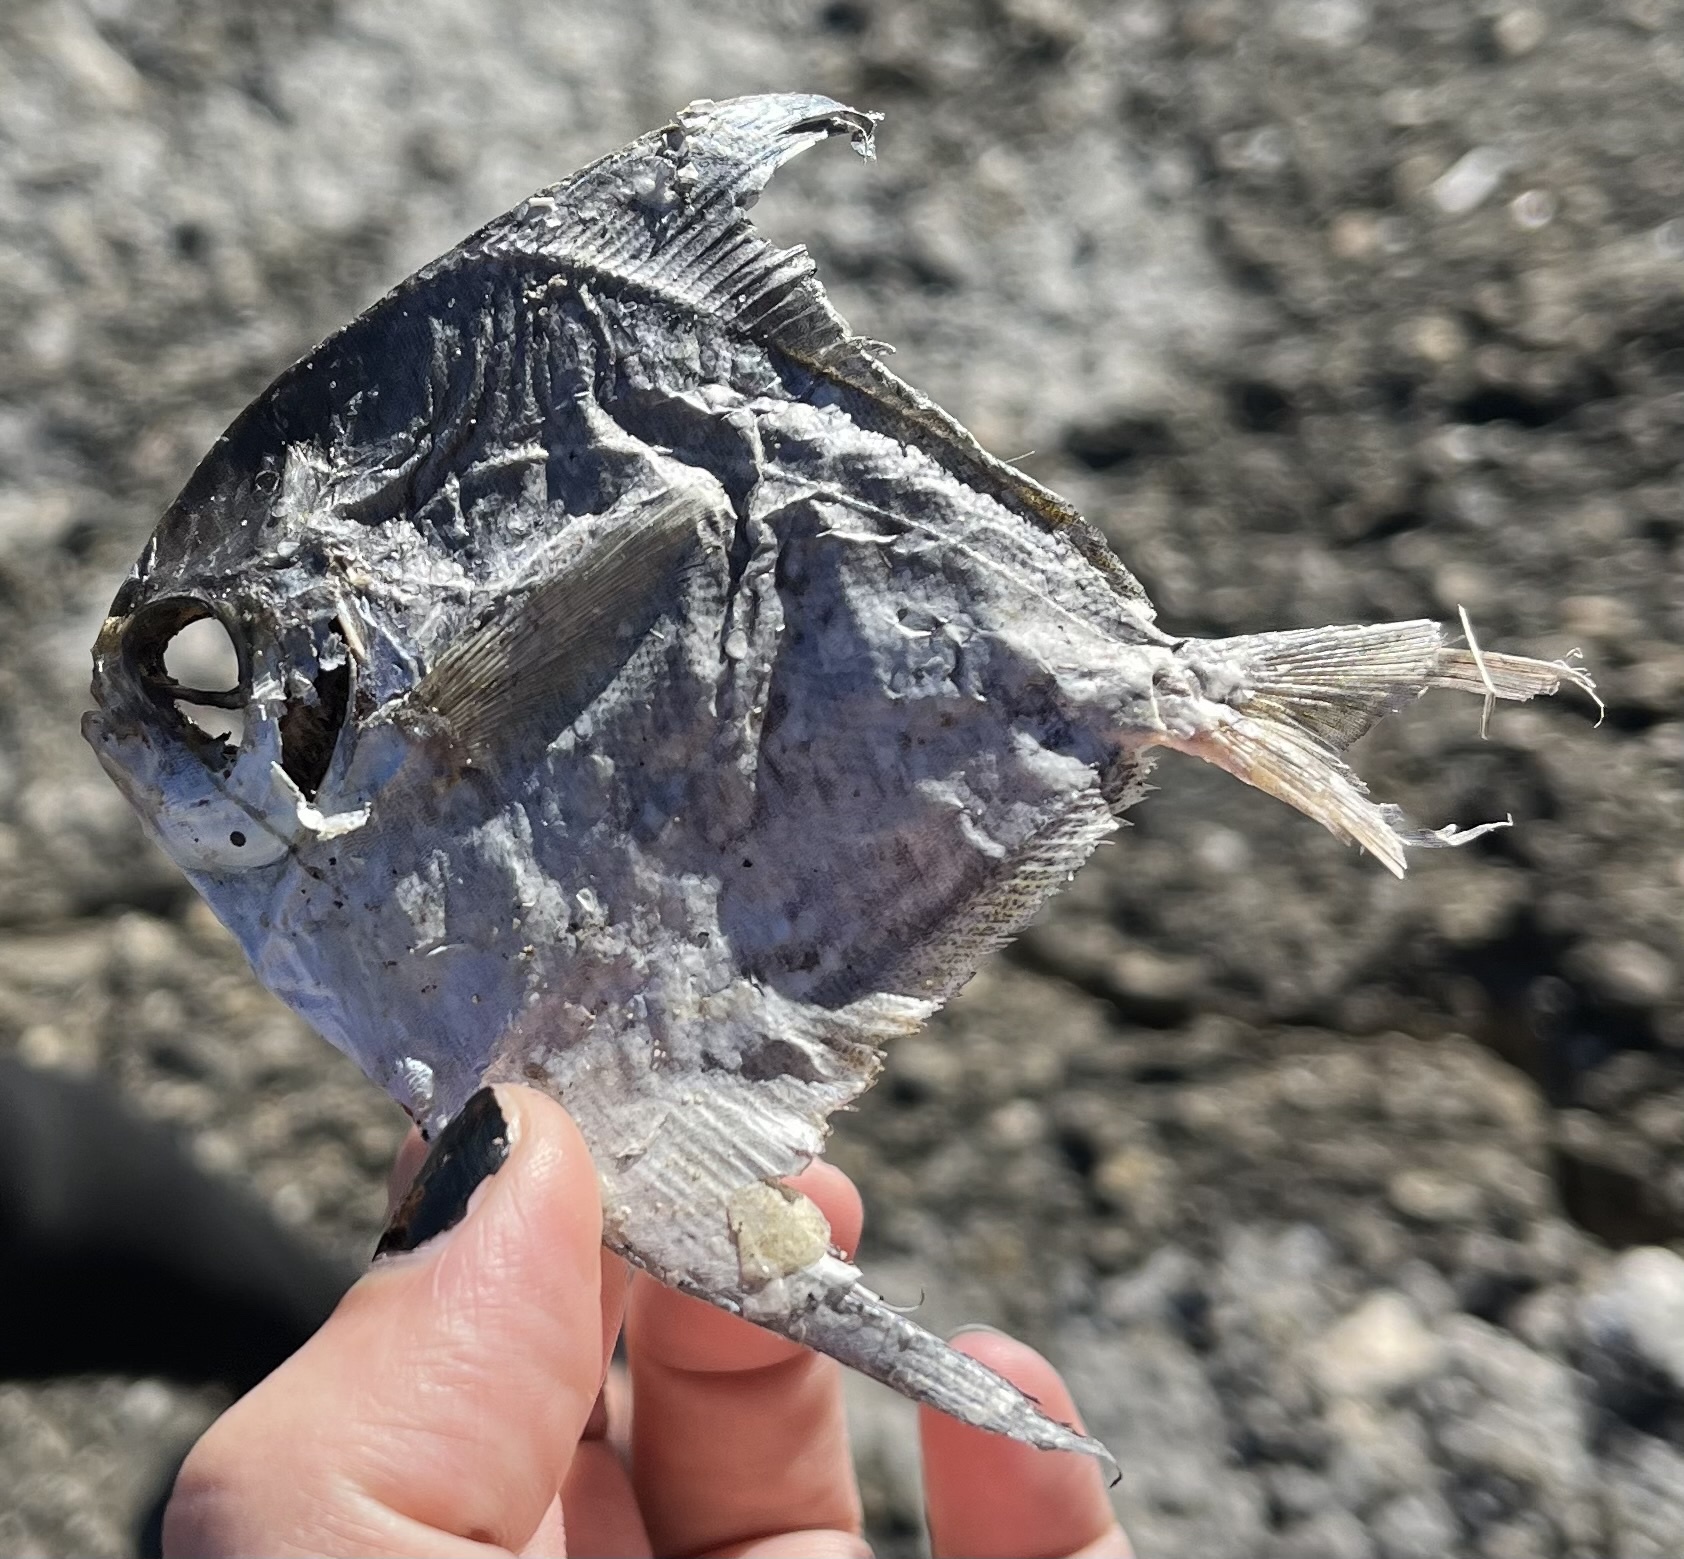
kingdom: Animalia
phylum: Chordata
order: Perciformes
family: Stromateidae
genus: Peprilus
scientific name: Peprilus paru
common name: American harvestfish
